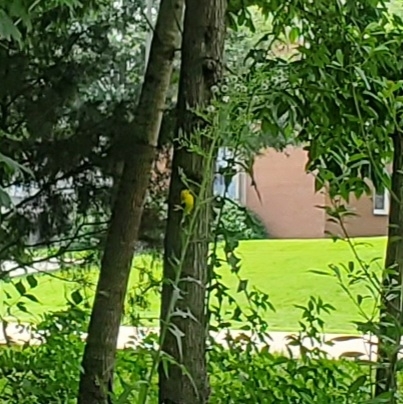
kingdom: Animalia
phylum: Chordata
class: Aves
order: Passeriformes
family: Fringillidae
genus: Spinus
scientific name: Spinus tristis
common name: American goldfinch
